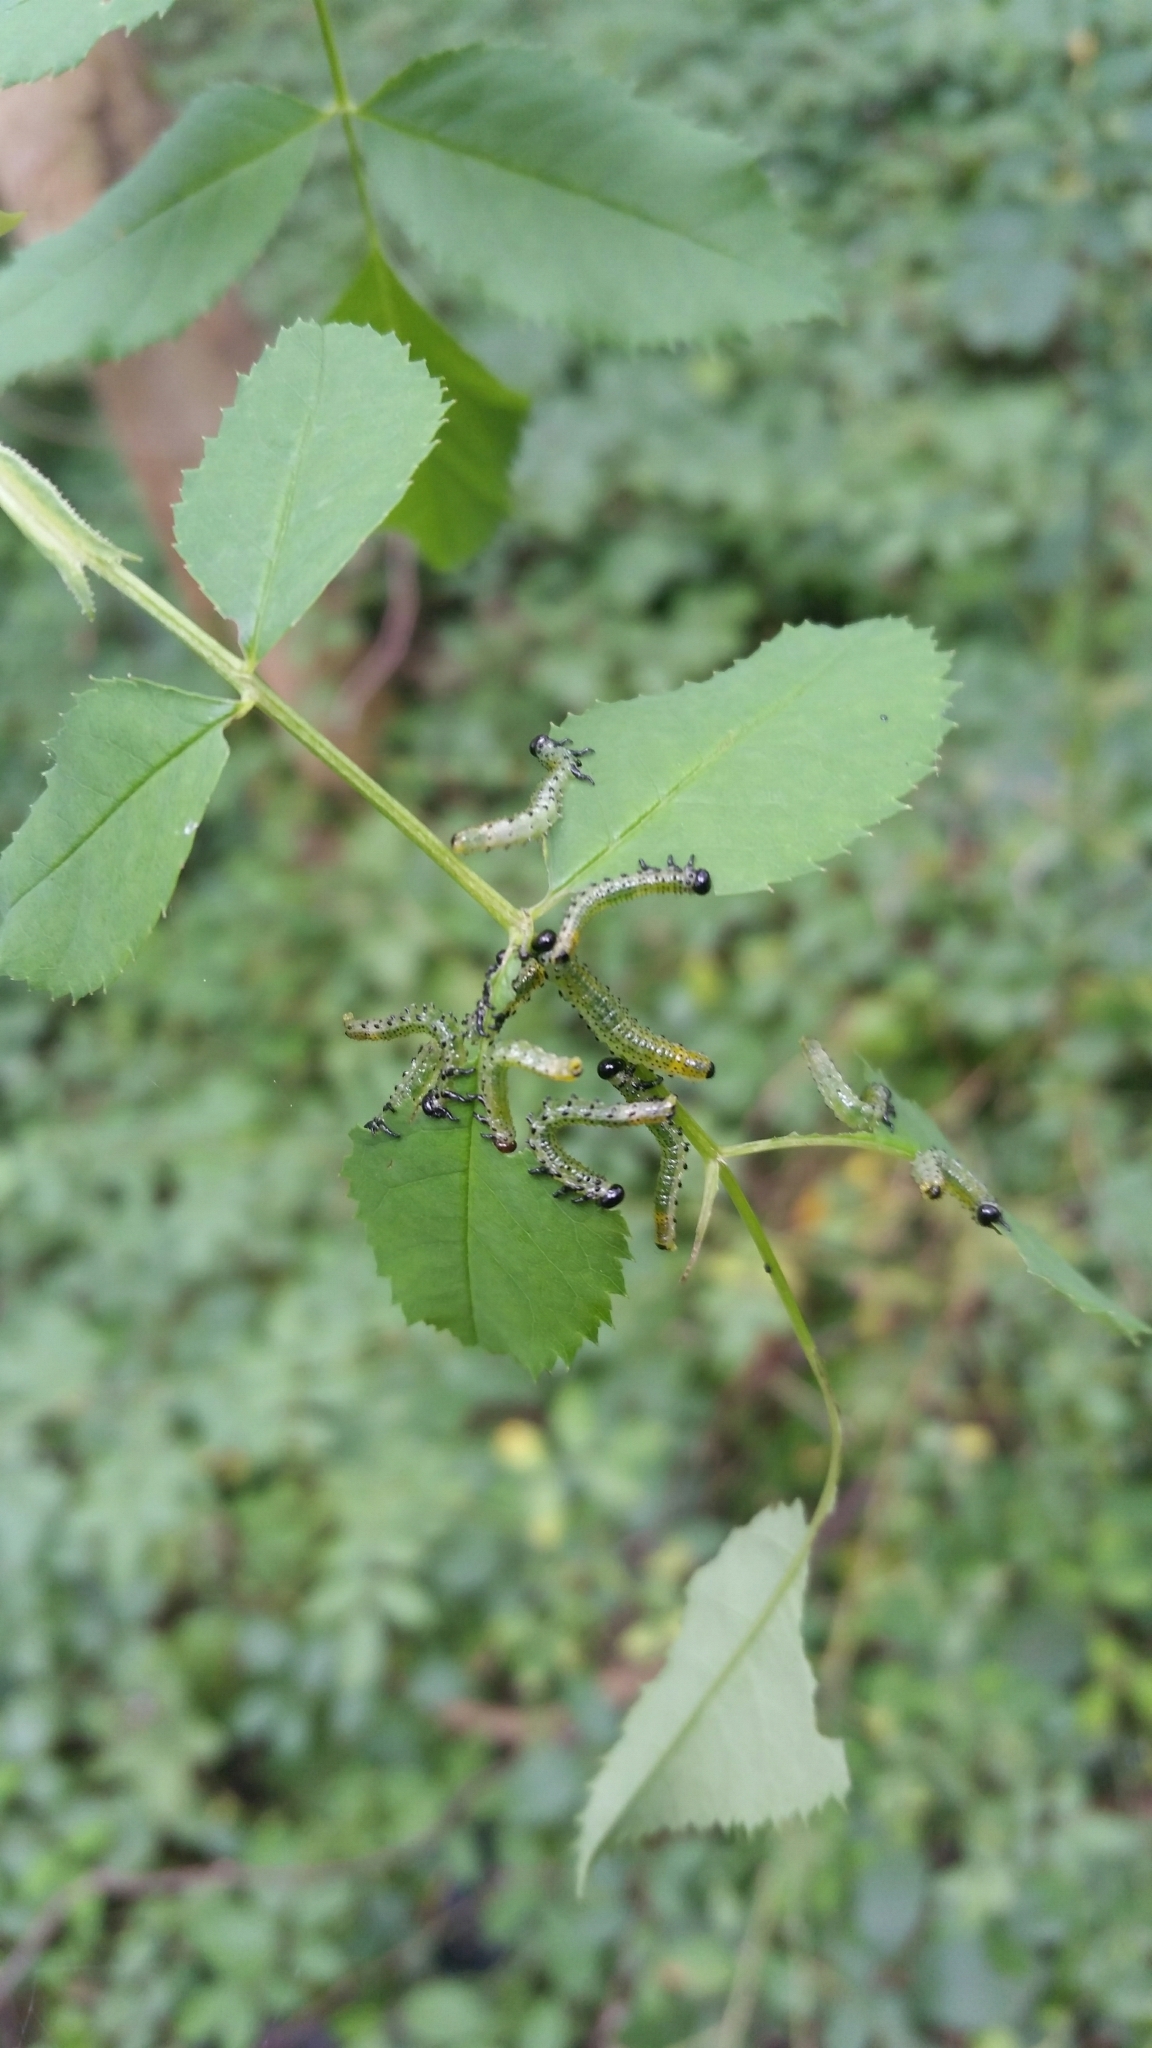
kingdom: Animalia
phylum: Arthropoda
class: Insecta
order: Hymenoptera
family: Argidae
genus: Arge
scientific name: Arge pagana
